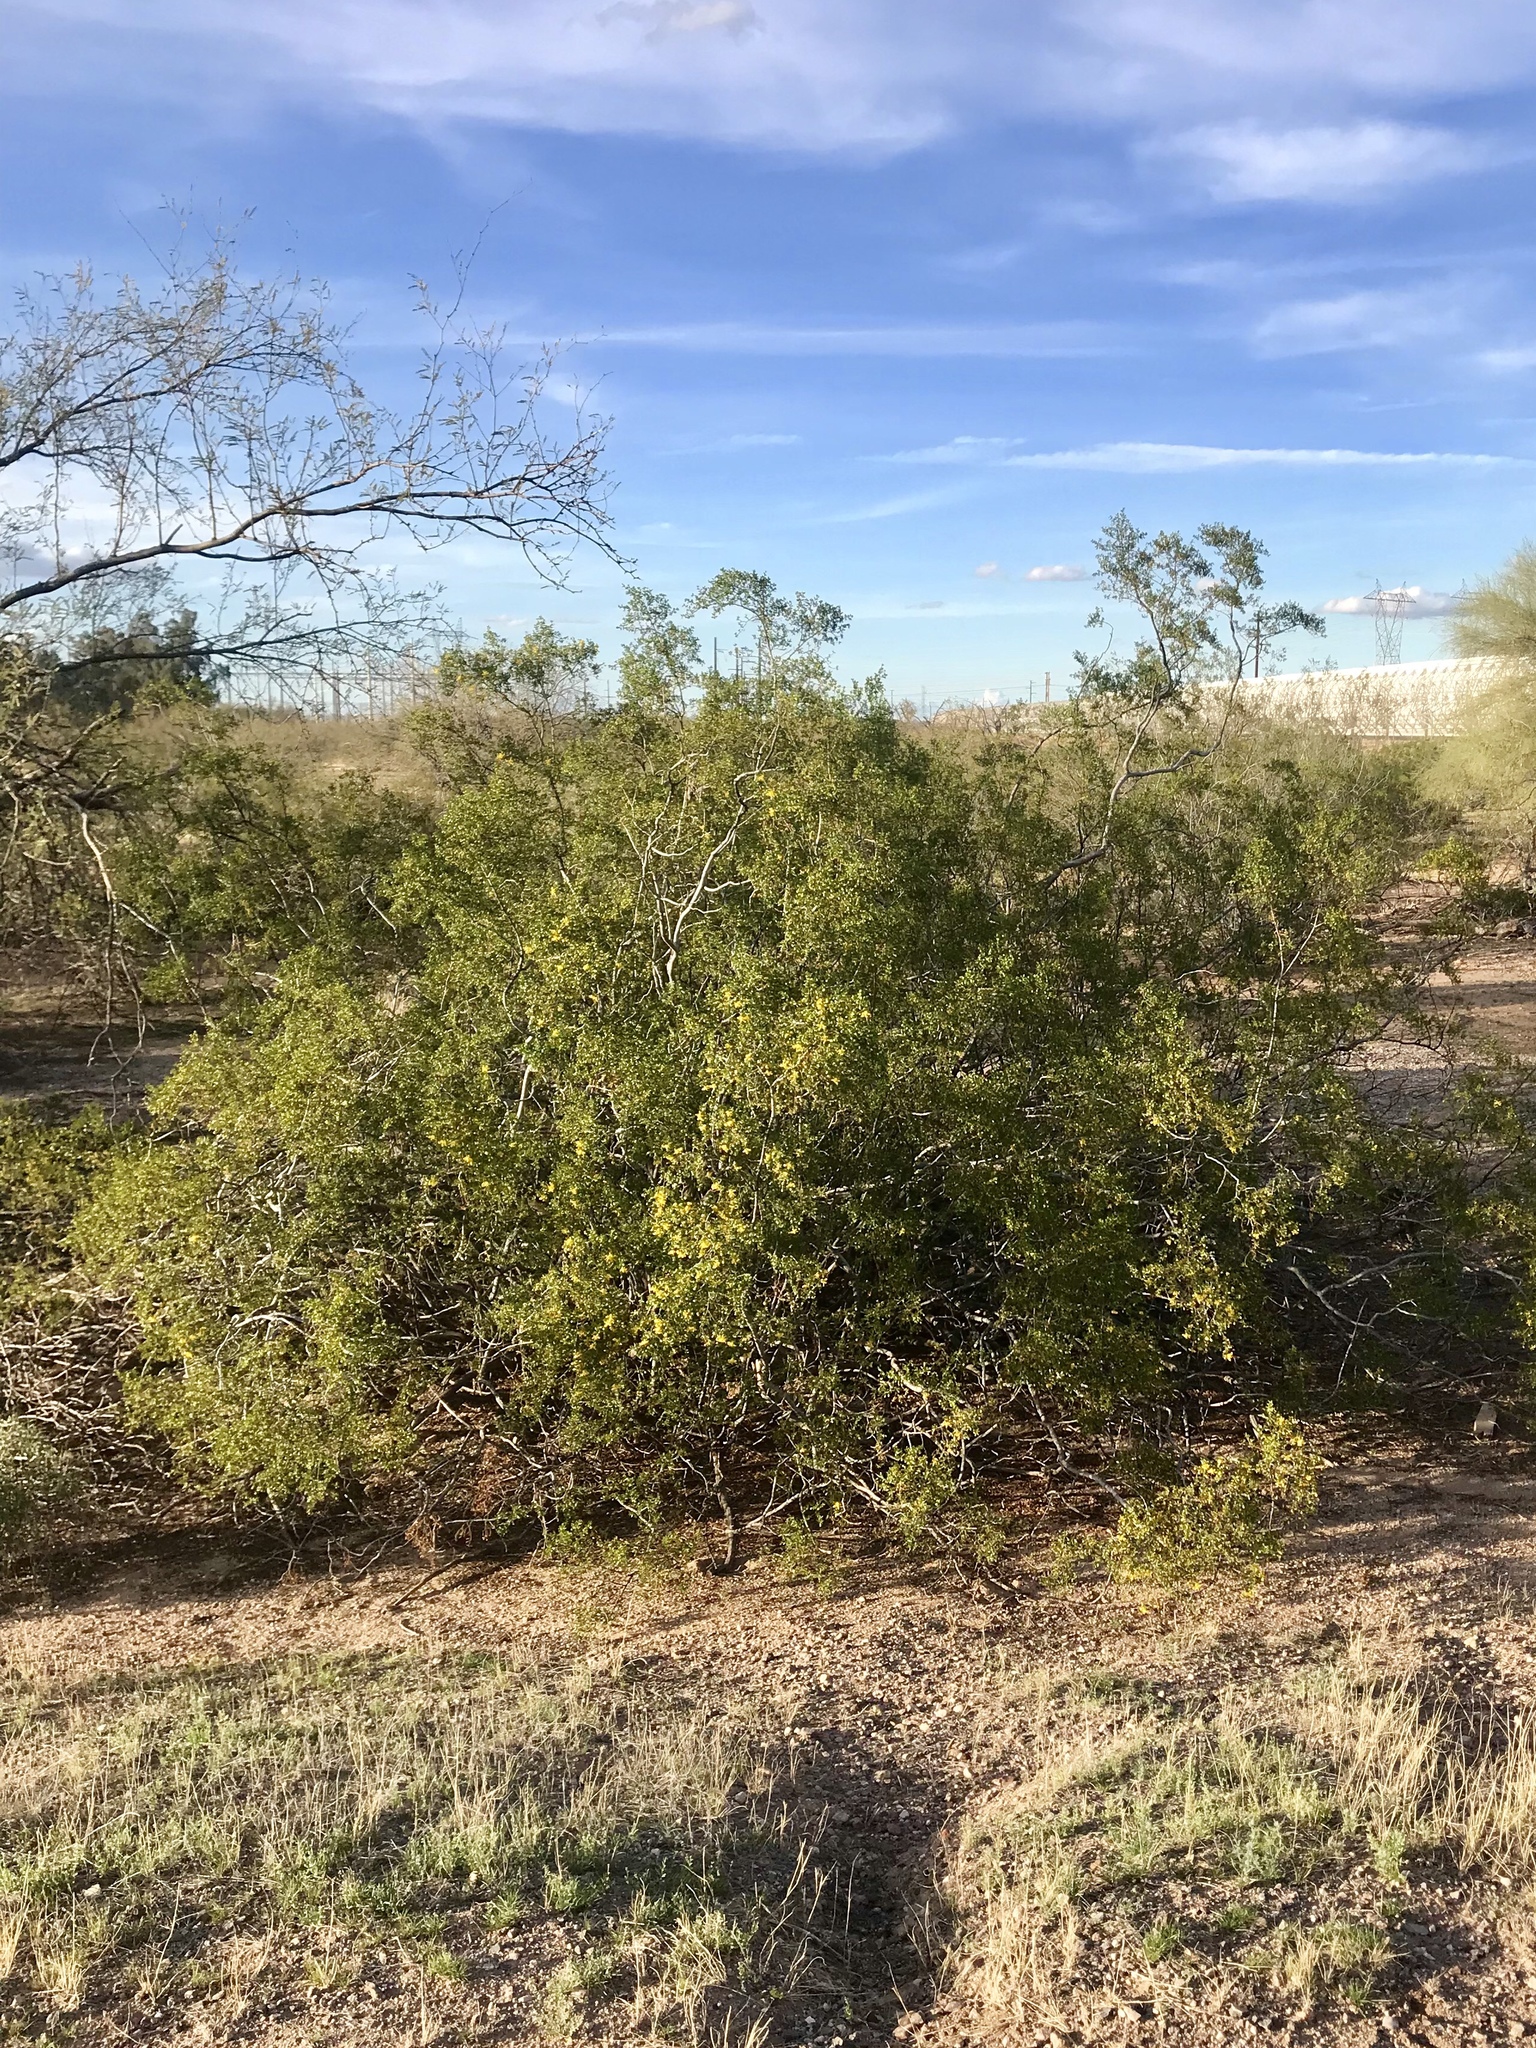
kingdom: Plantae
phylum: Tracheophyta
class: Magnoliopsida
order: Zygophyllales
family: Zygophyllaceae
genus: Larrea
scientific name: Larrea tridentata
